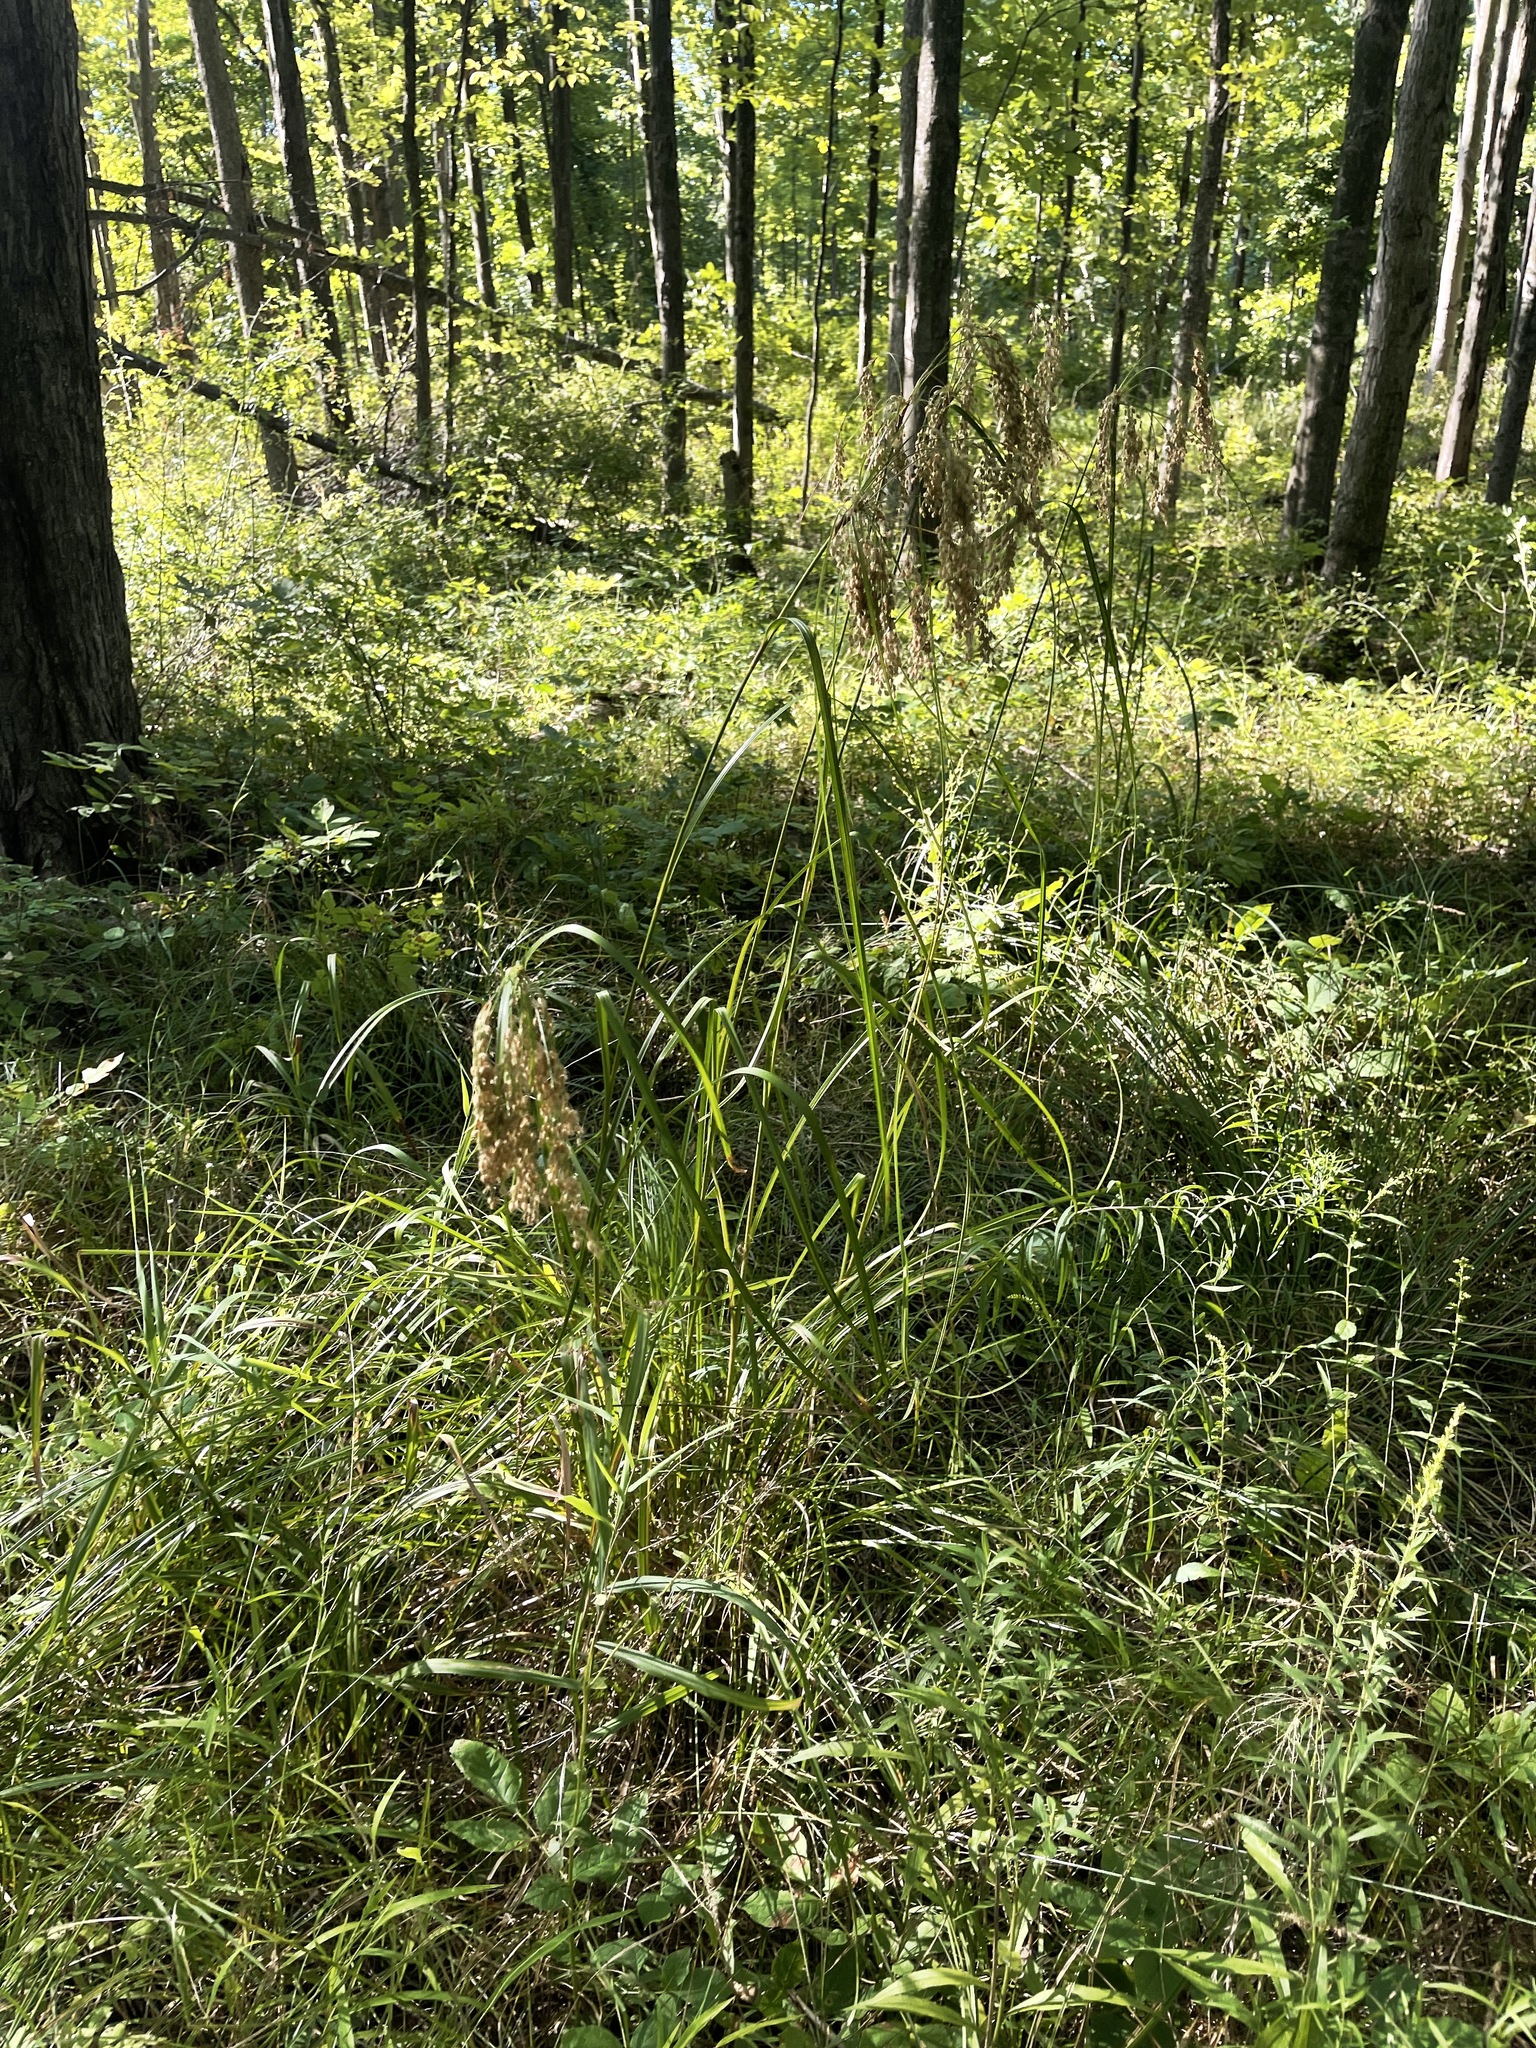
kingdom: Plantae
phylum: Tracheophyta
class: Liliopsida
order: Poales
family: Cyperaceae
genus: Scirpus
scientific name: Scirpus cyperinus
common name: Black-sheathed bulrush
